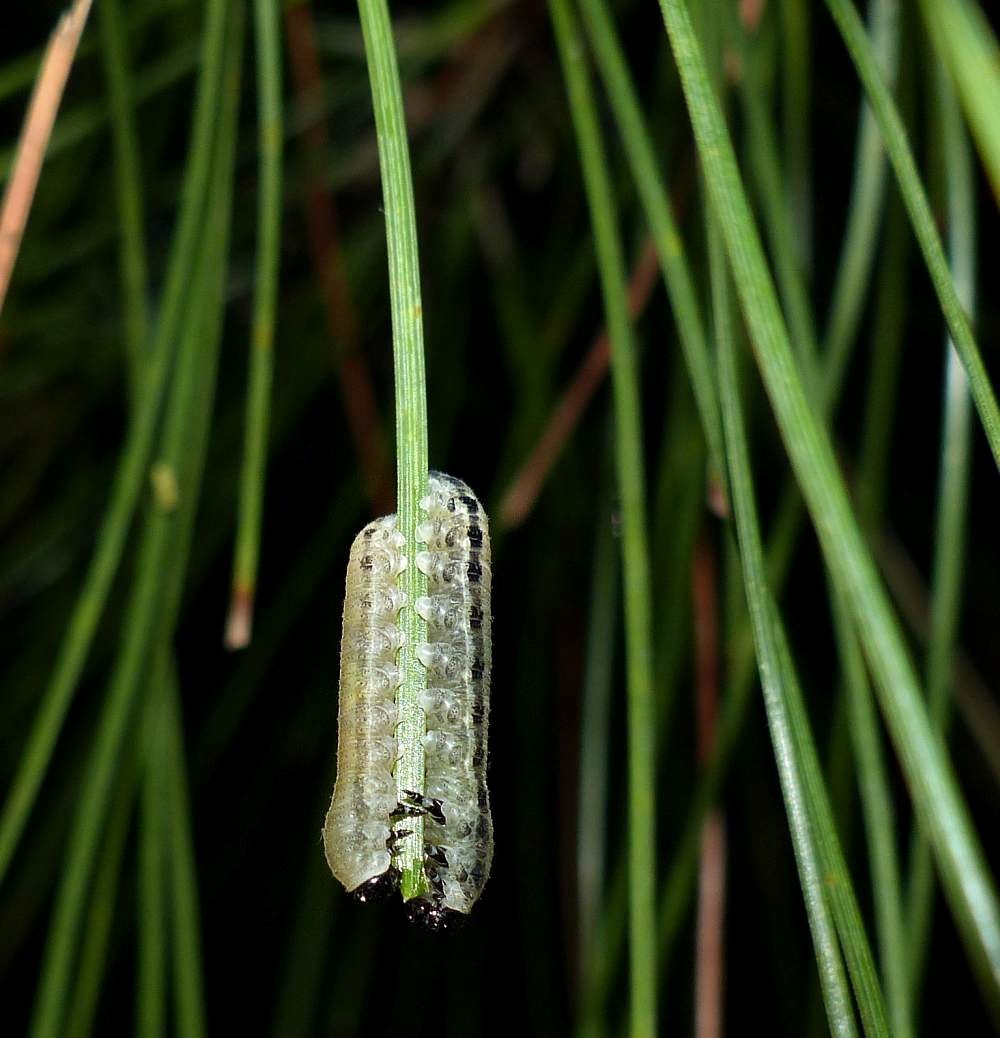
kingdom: Animalia
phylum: Arthropoda
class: Insecta
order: Hymenoptera
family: Diprionidae
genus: Neodiprion
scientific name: Neodiprion sertifer
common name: European pine sawfly
